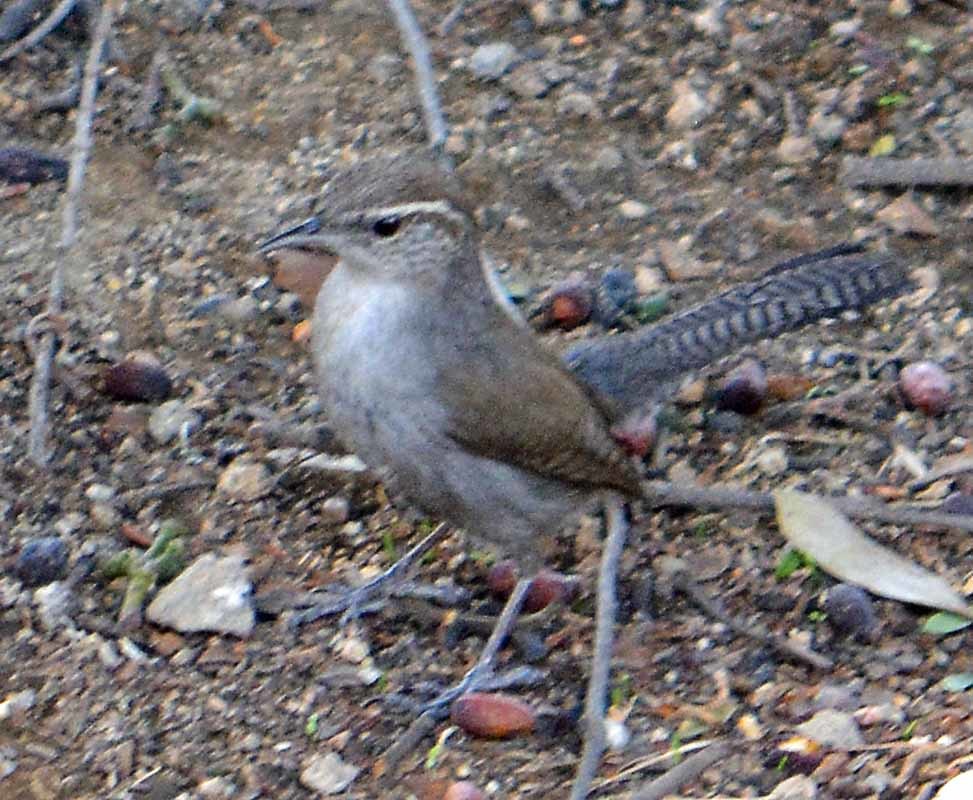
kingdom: Animalia
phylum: Chordata
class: Aves
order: Passeriformes
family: Troglodytidae
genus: Thryomanes
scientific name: Thryomanes bewickii
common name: Bewick's wren
